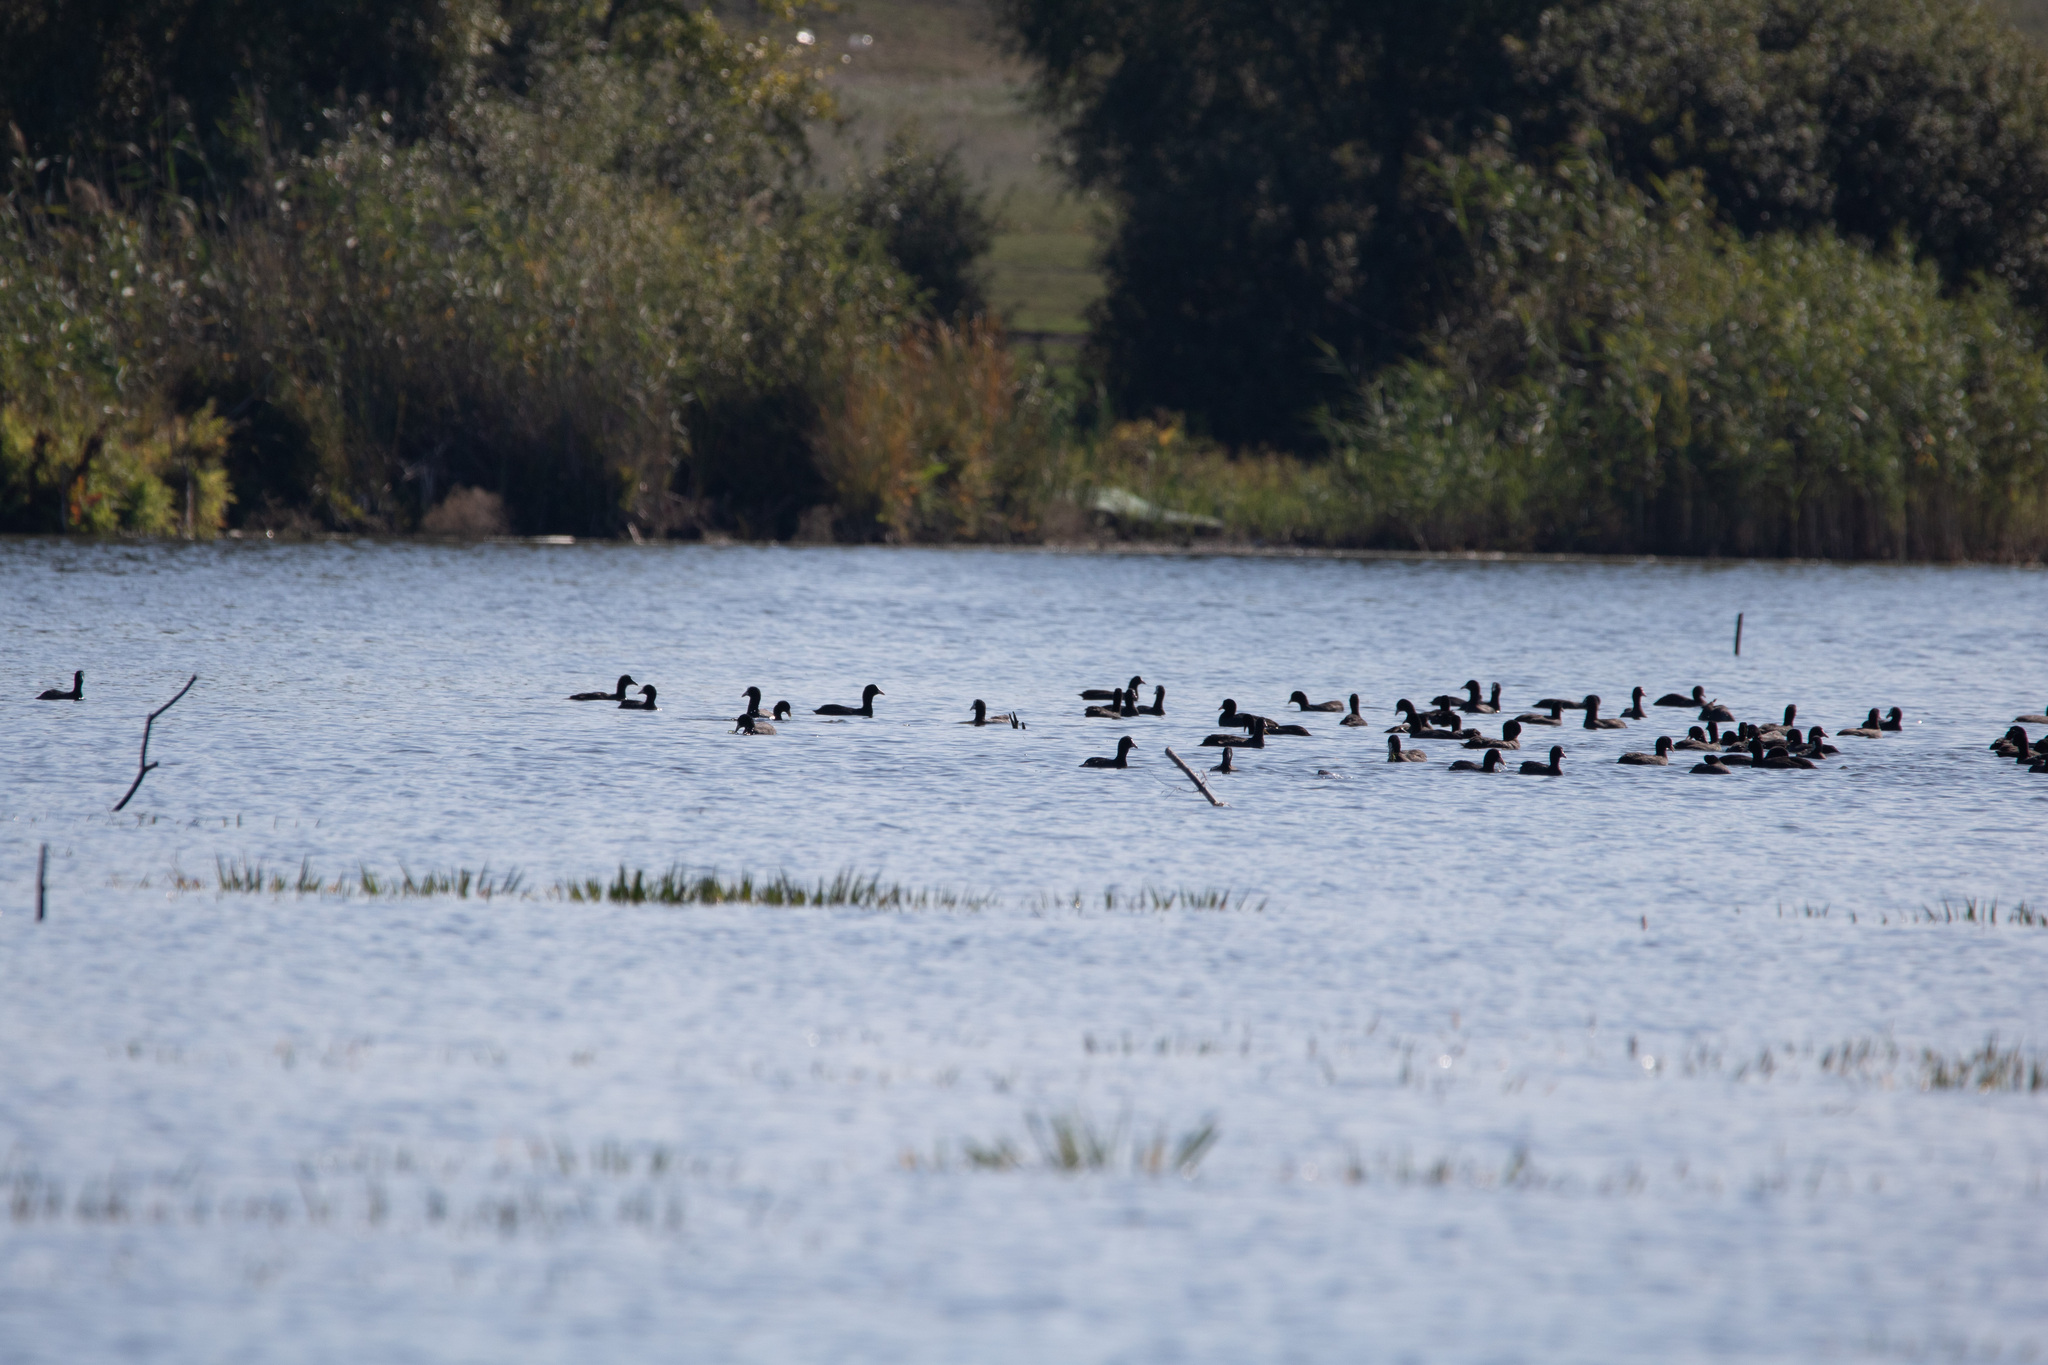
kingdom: Animalia
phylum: Chordata
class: Aves
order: Gruiformes
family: Rallidae
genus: Fulica
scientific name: Fulica atra
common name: Eurasian coot
